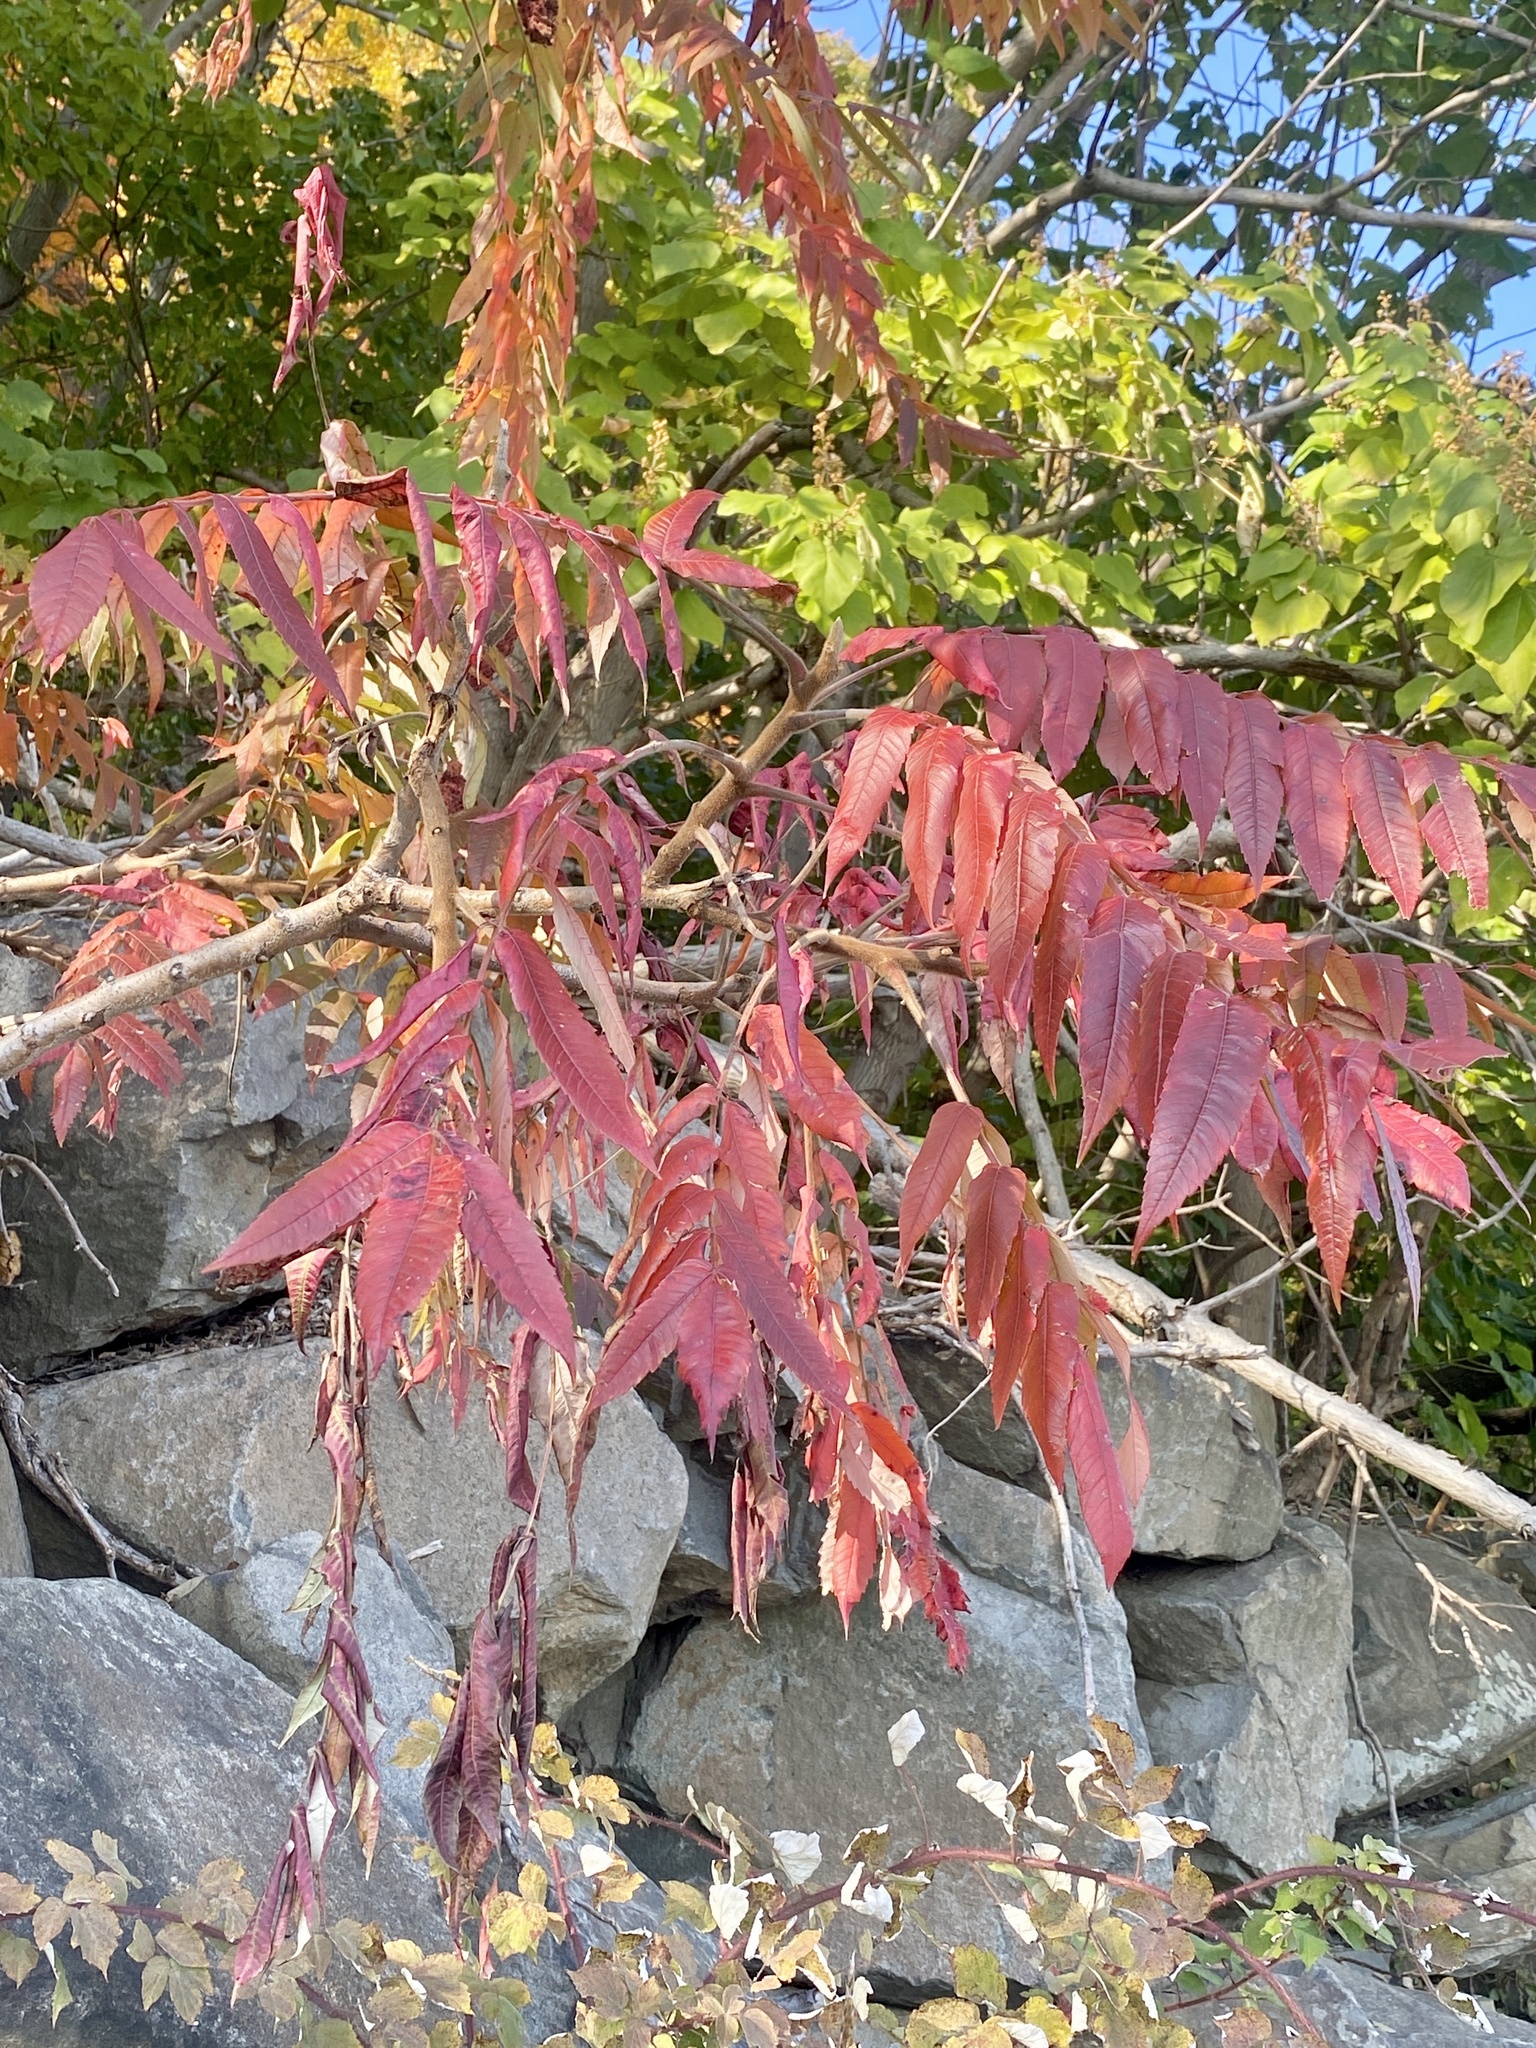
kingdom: Plantae
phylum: Tracheophyta
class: Magnoliopsida
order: Sapindales
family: Anacardiaceae
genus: Rhus
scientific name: Rhus typhina
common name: Staghorn sumac
